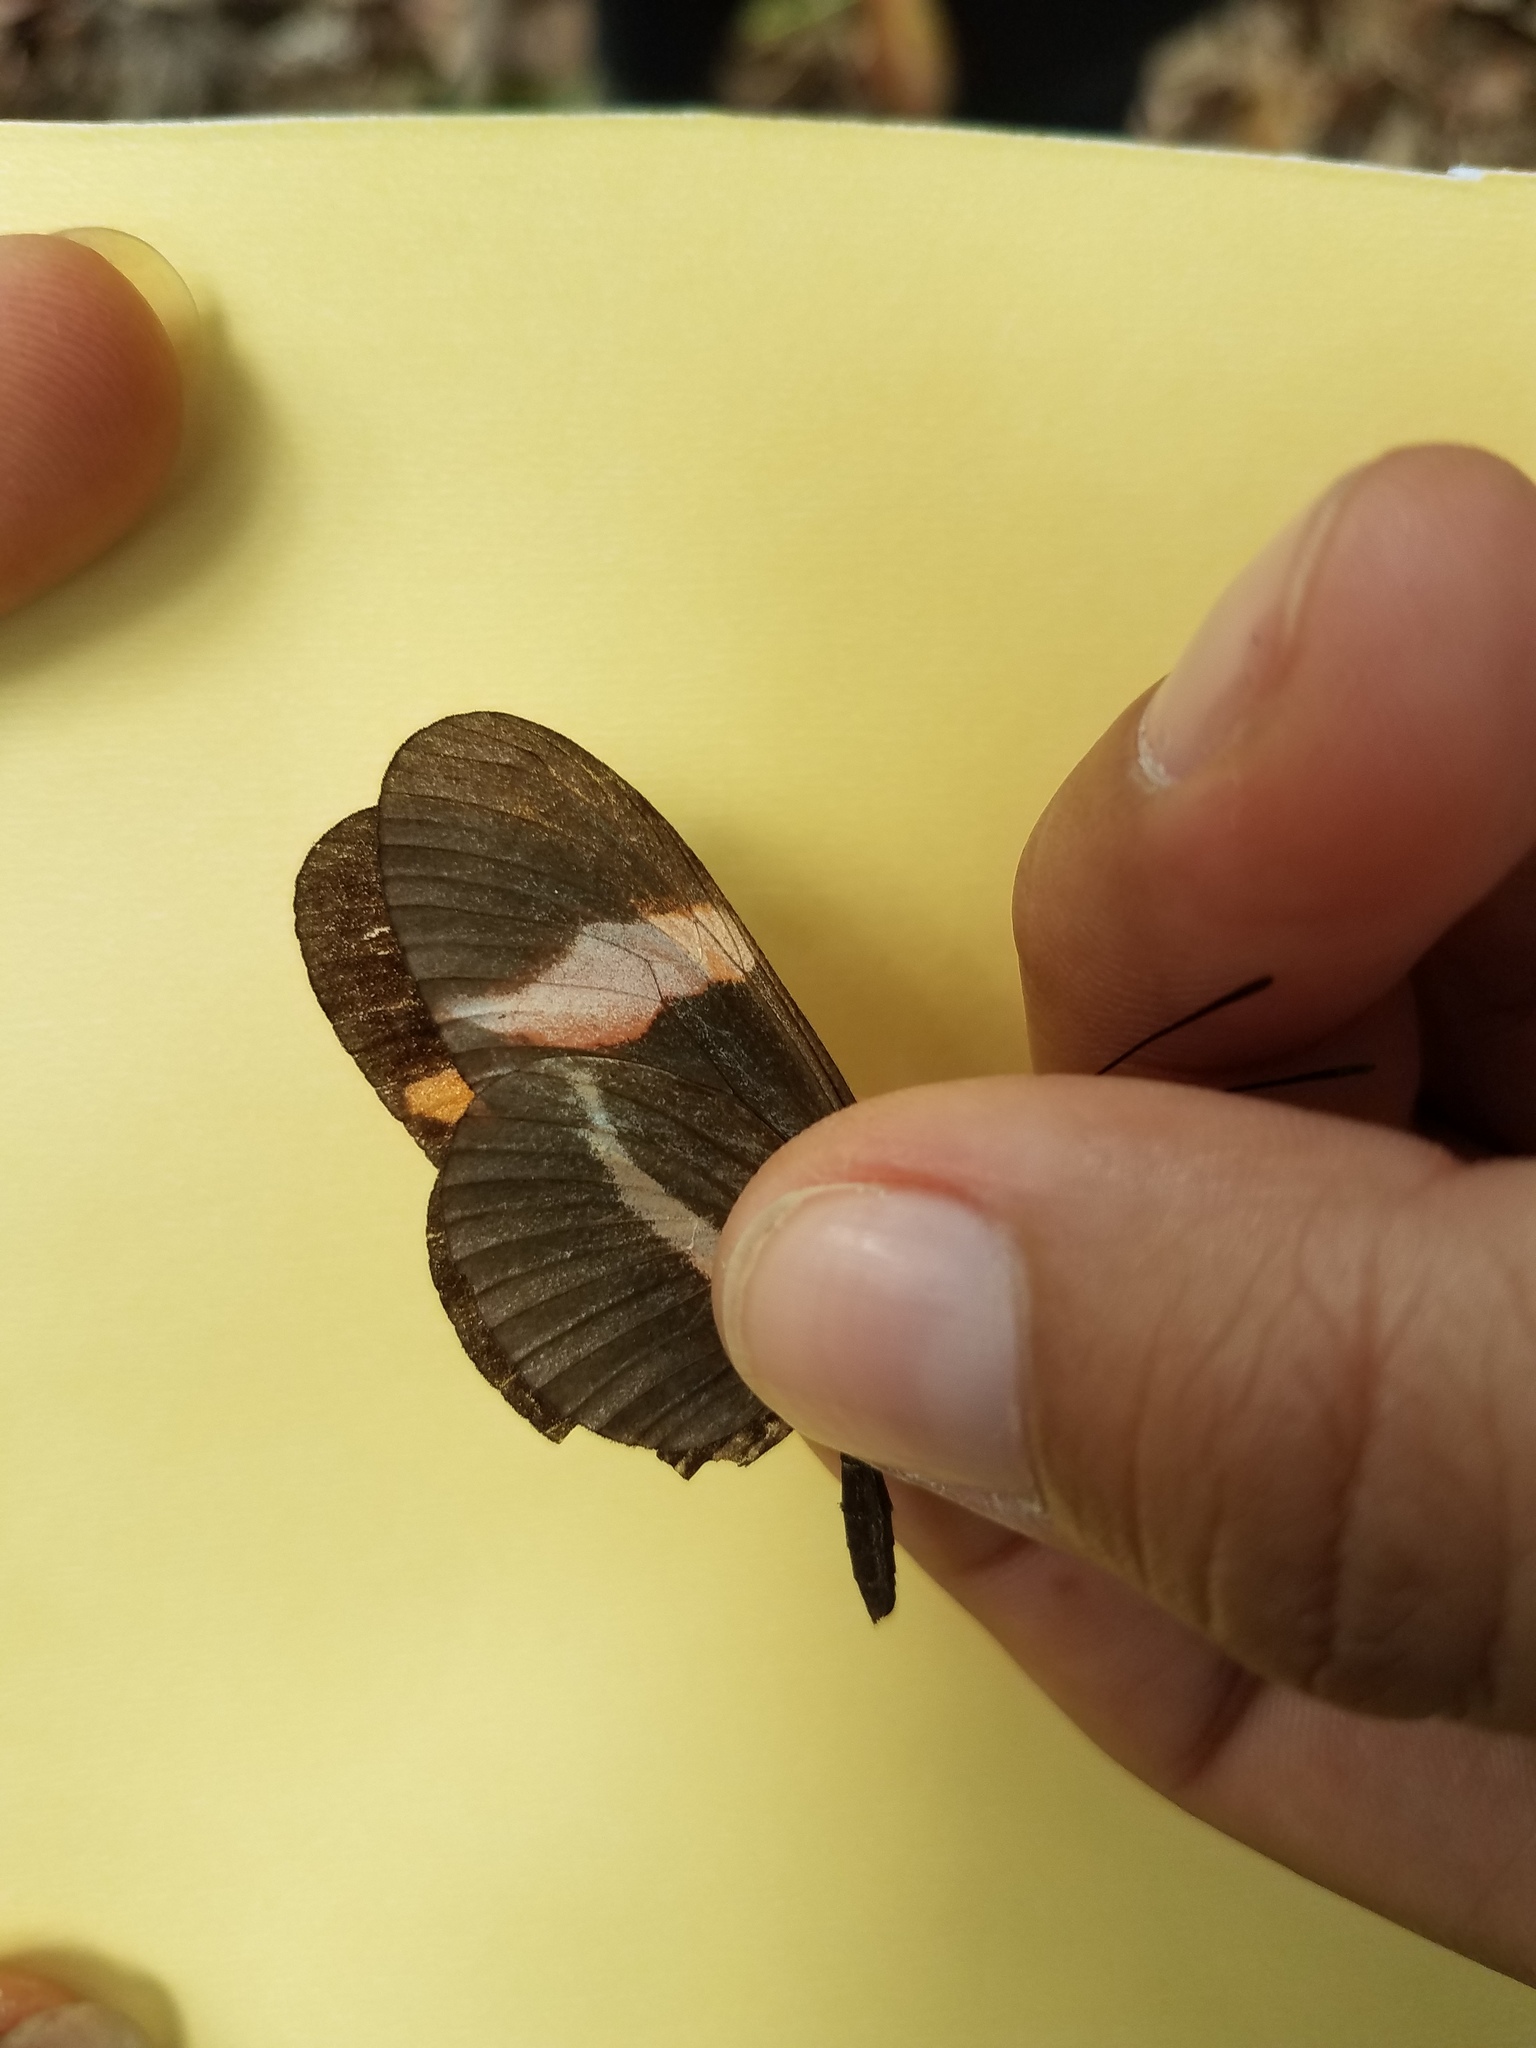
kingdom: Animalia
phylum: Arthropoda
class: Insecta
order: Lepidoptera
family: Nymphalidae
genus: Tirumala
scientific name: Tirumala petiverana
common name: Blue monarch
